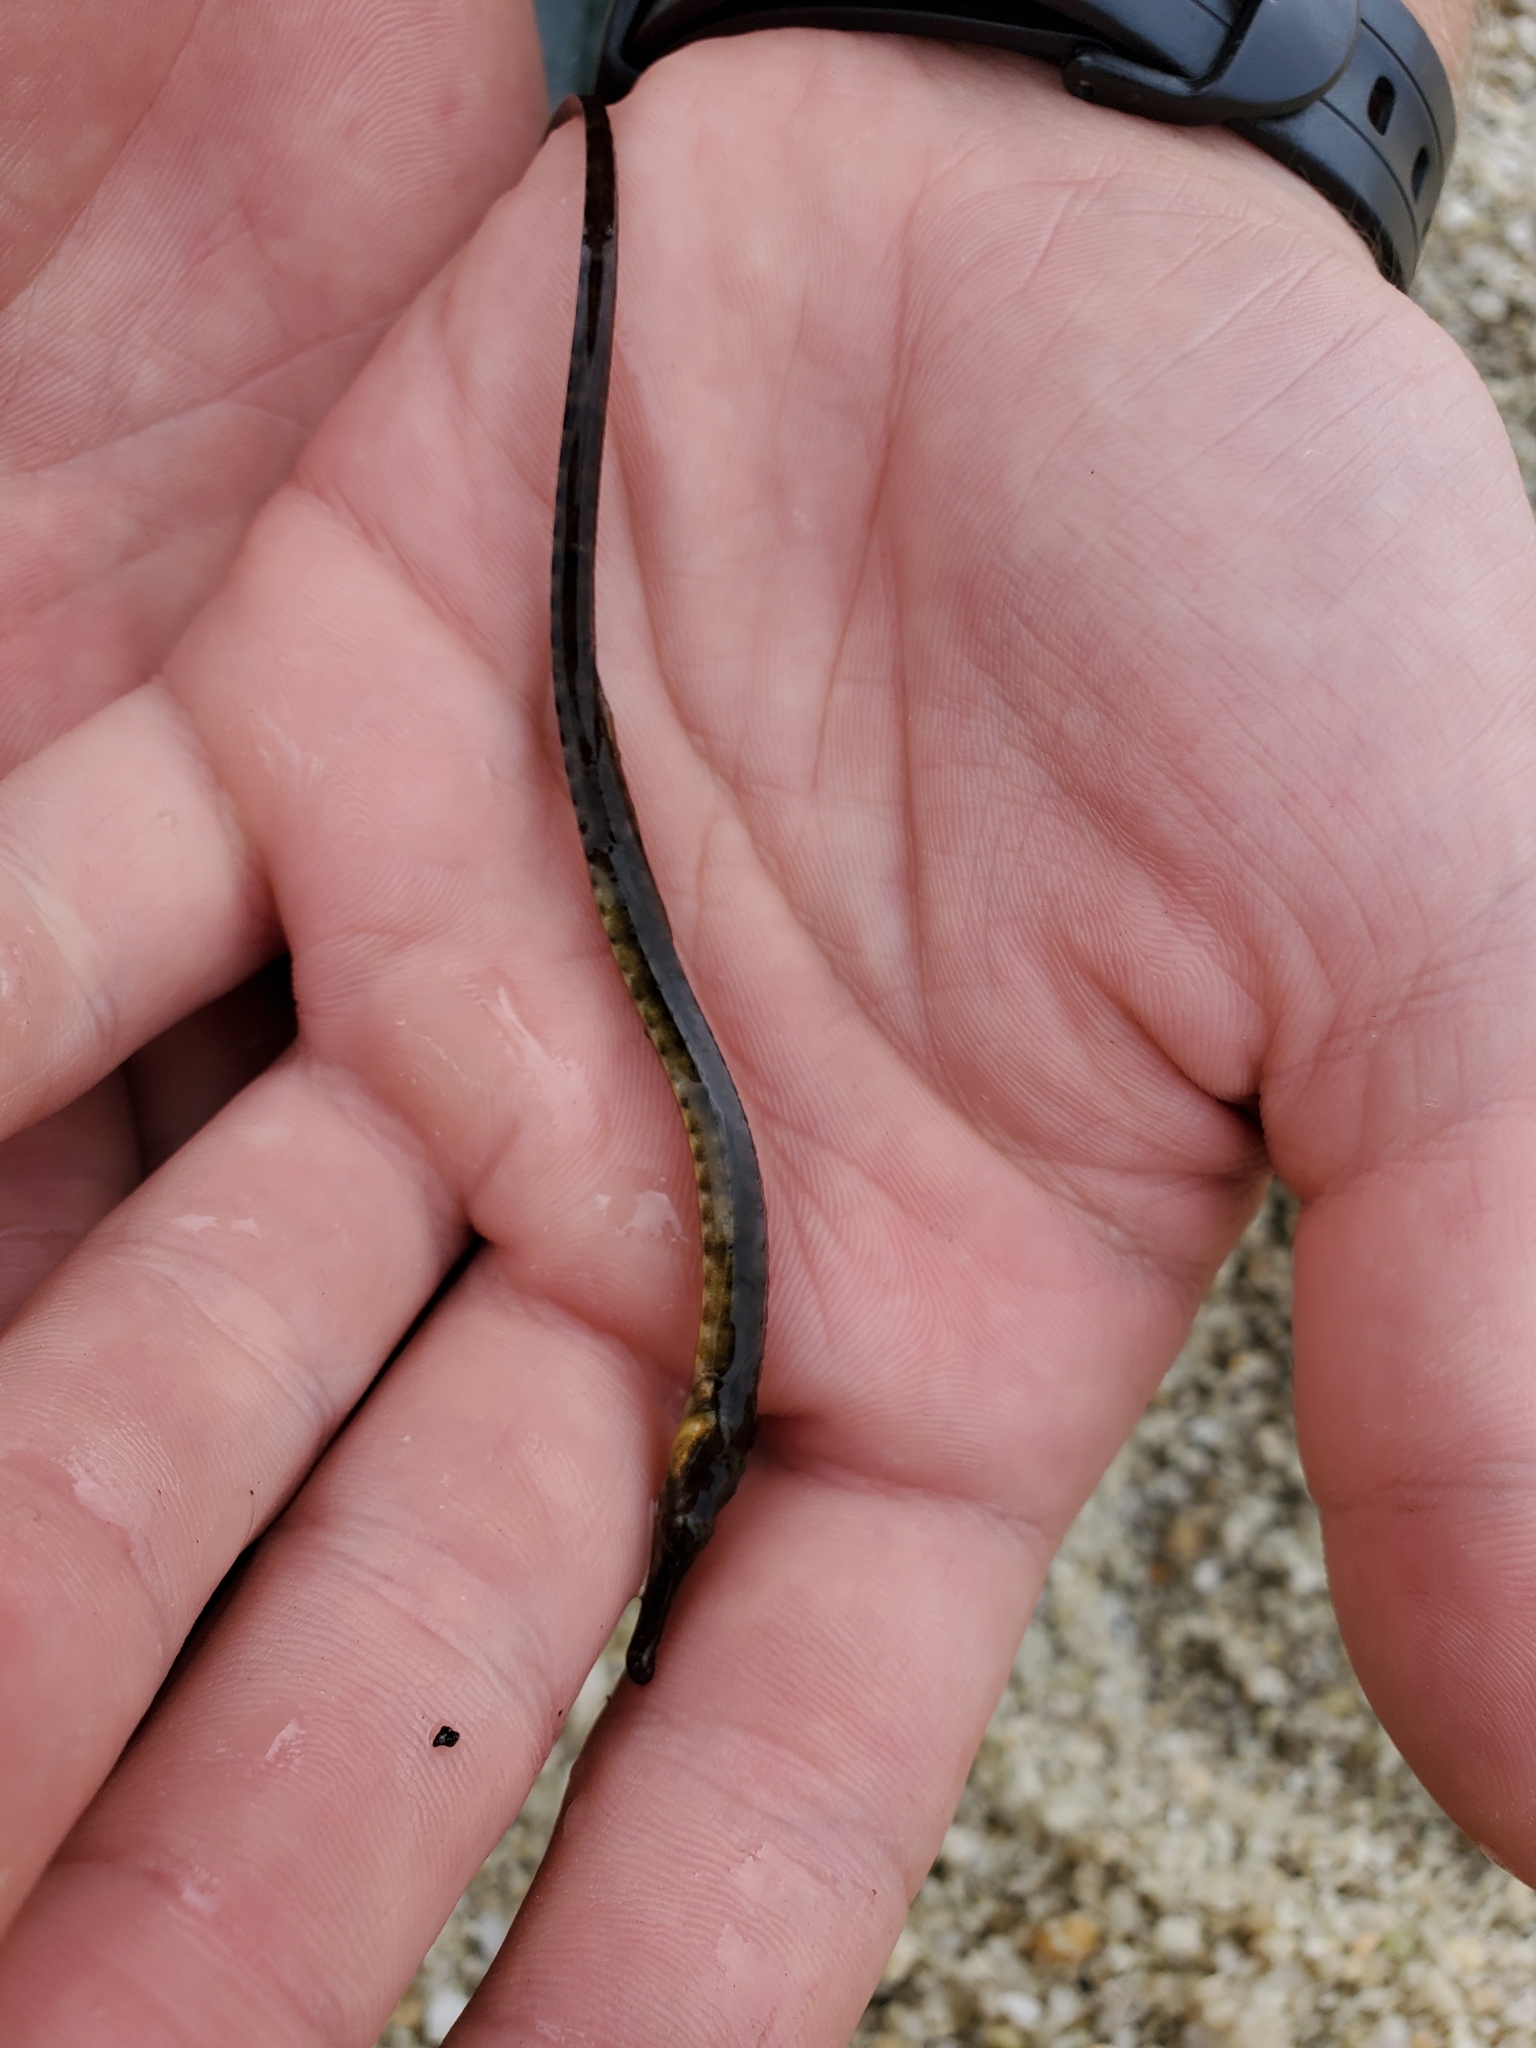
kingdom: Animalia
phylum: Chordata
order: Syngnathiformes
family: Syngnathidae
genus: Syngnathus
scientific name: Syngnathus fuscus
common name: Northern pipefish
